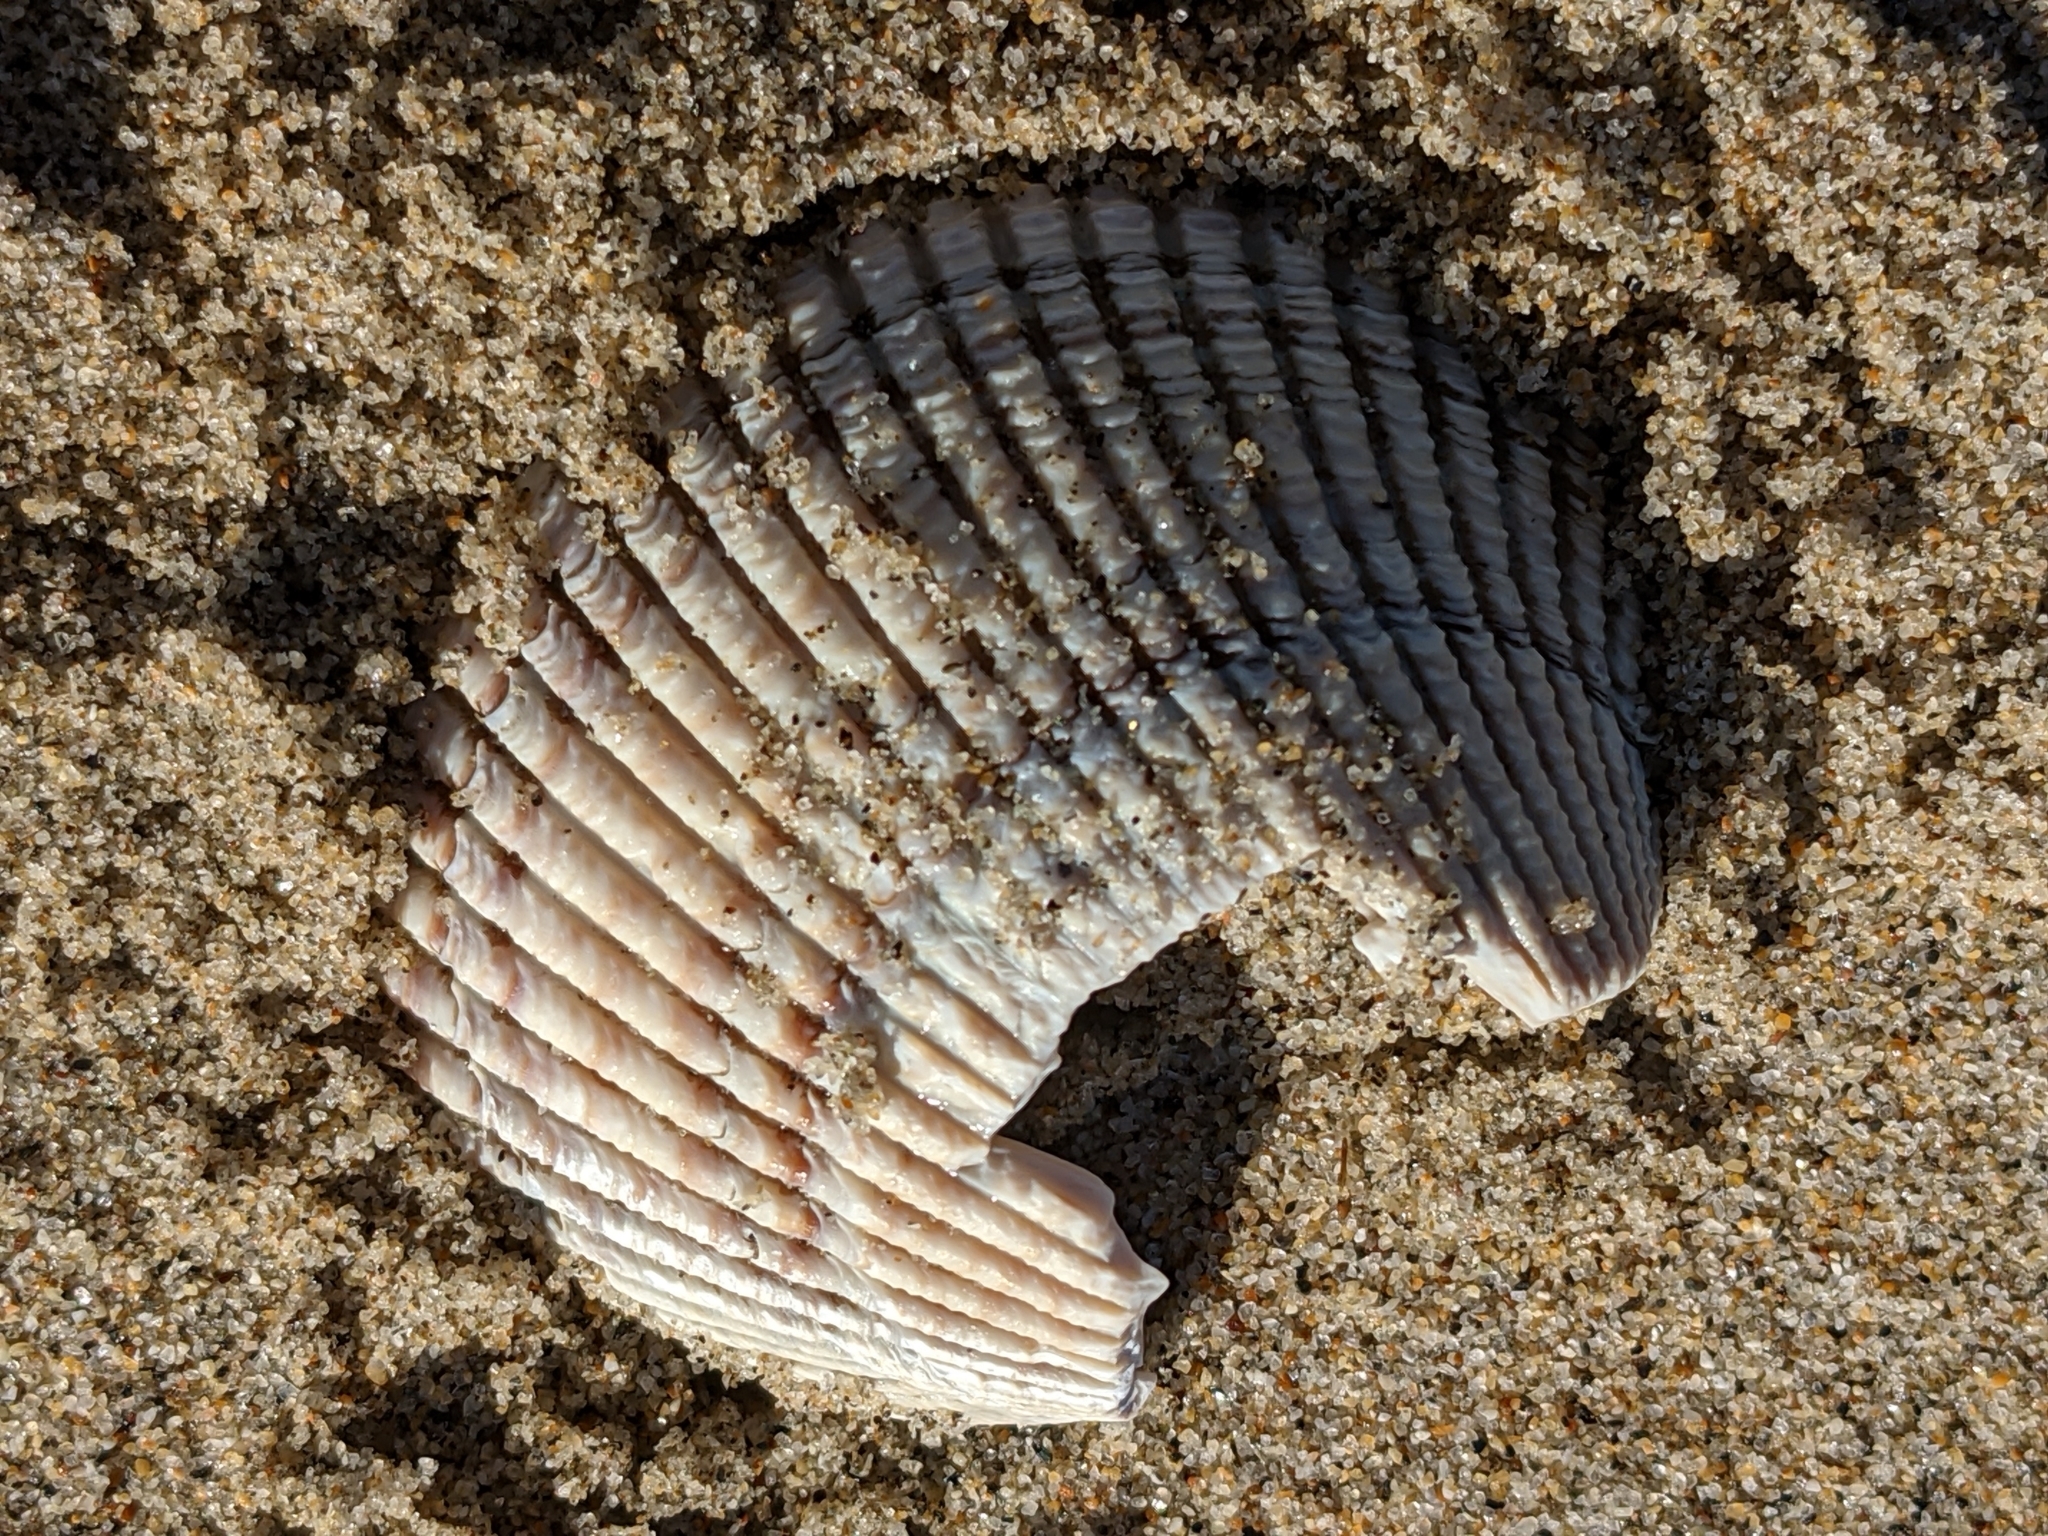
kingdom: Animalia
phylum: Mollusca
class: Bivalvia
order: Cardiida
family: Cardiidae
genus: Clinocardium
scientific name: Clinocardium nuttallii
